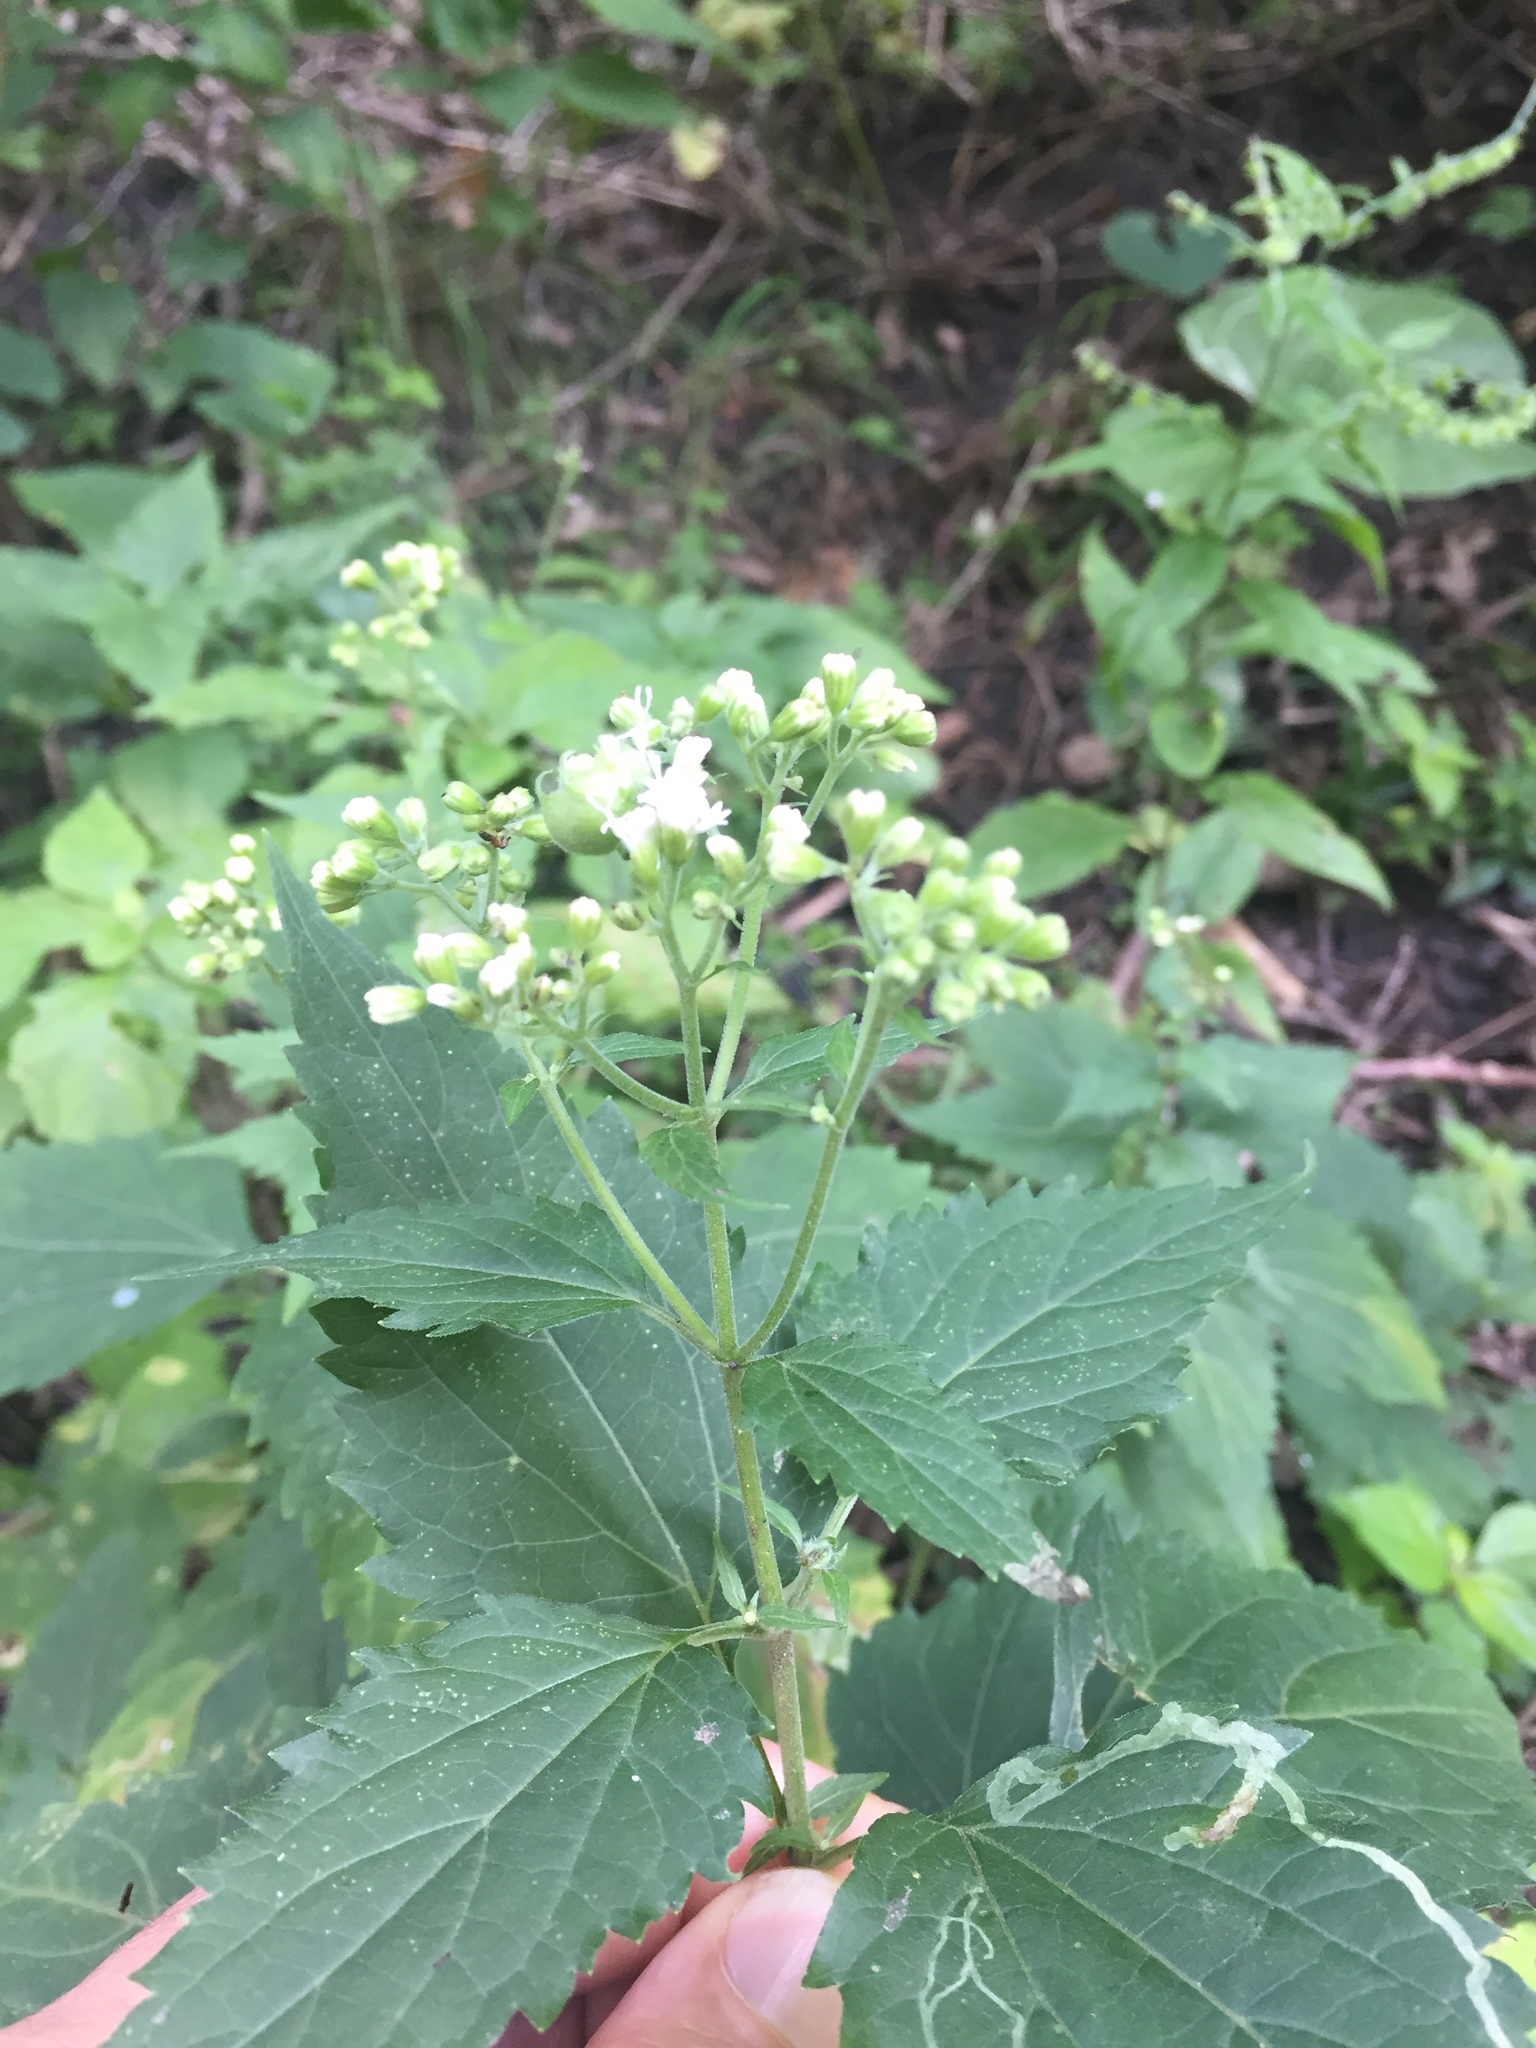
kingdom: Plantae
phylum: Tracheophyta
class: Magnoliopsida
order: Asterales
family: Asteraceae
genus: Ageratina
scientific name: Ageratina altissima
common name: White snakeroot
